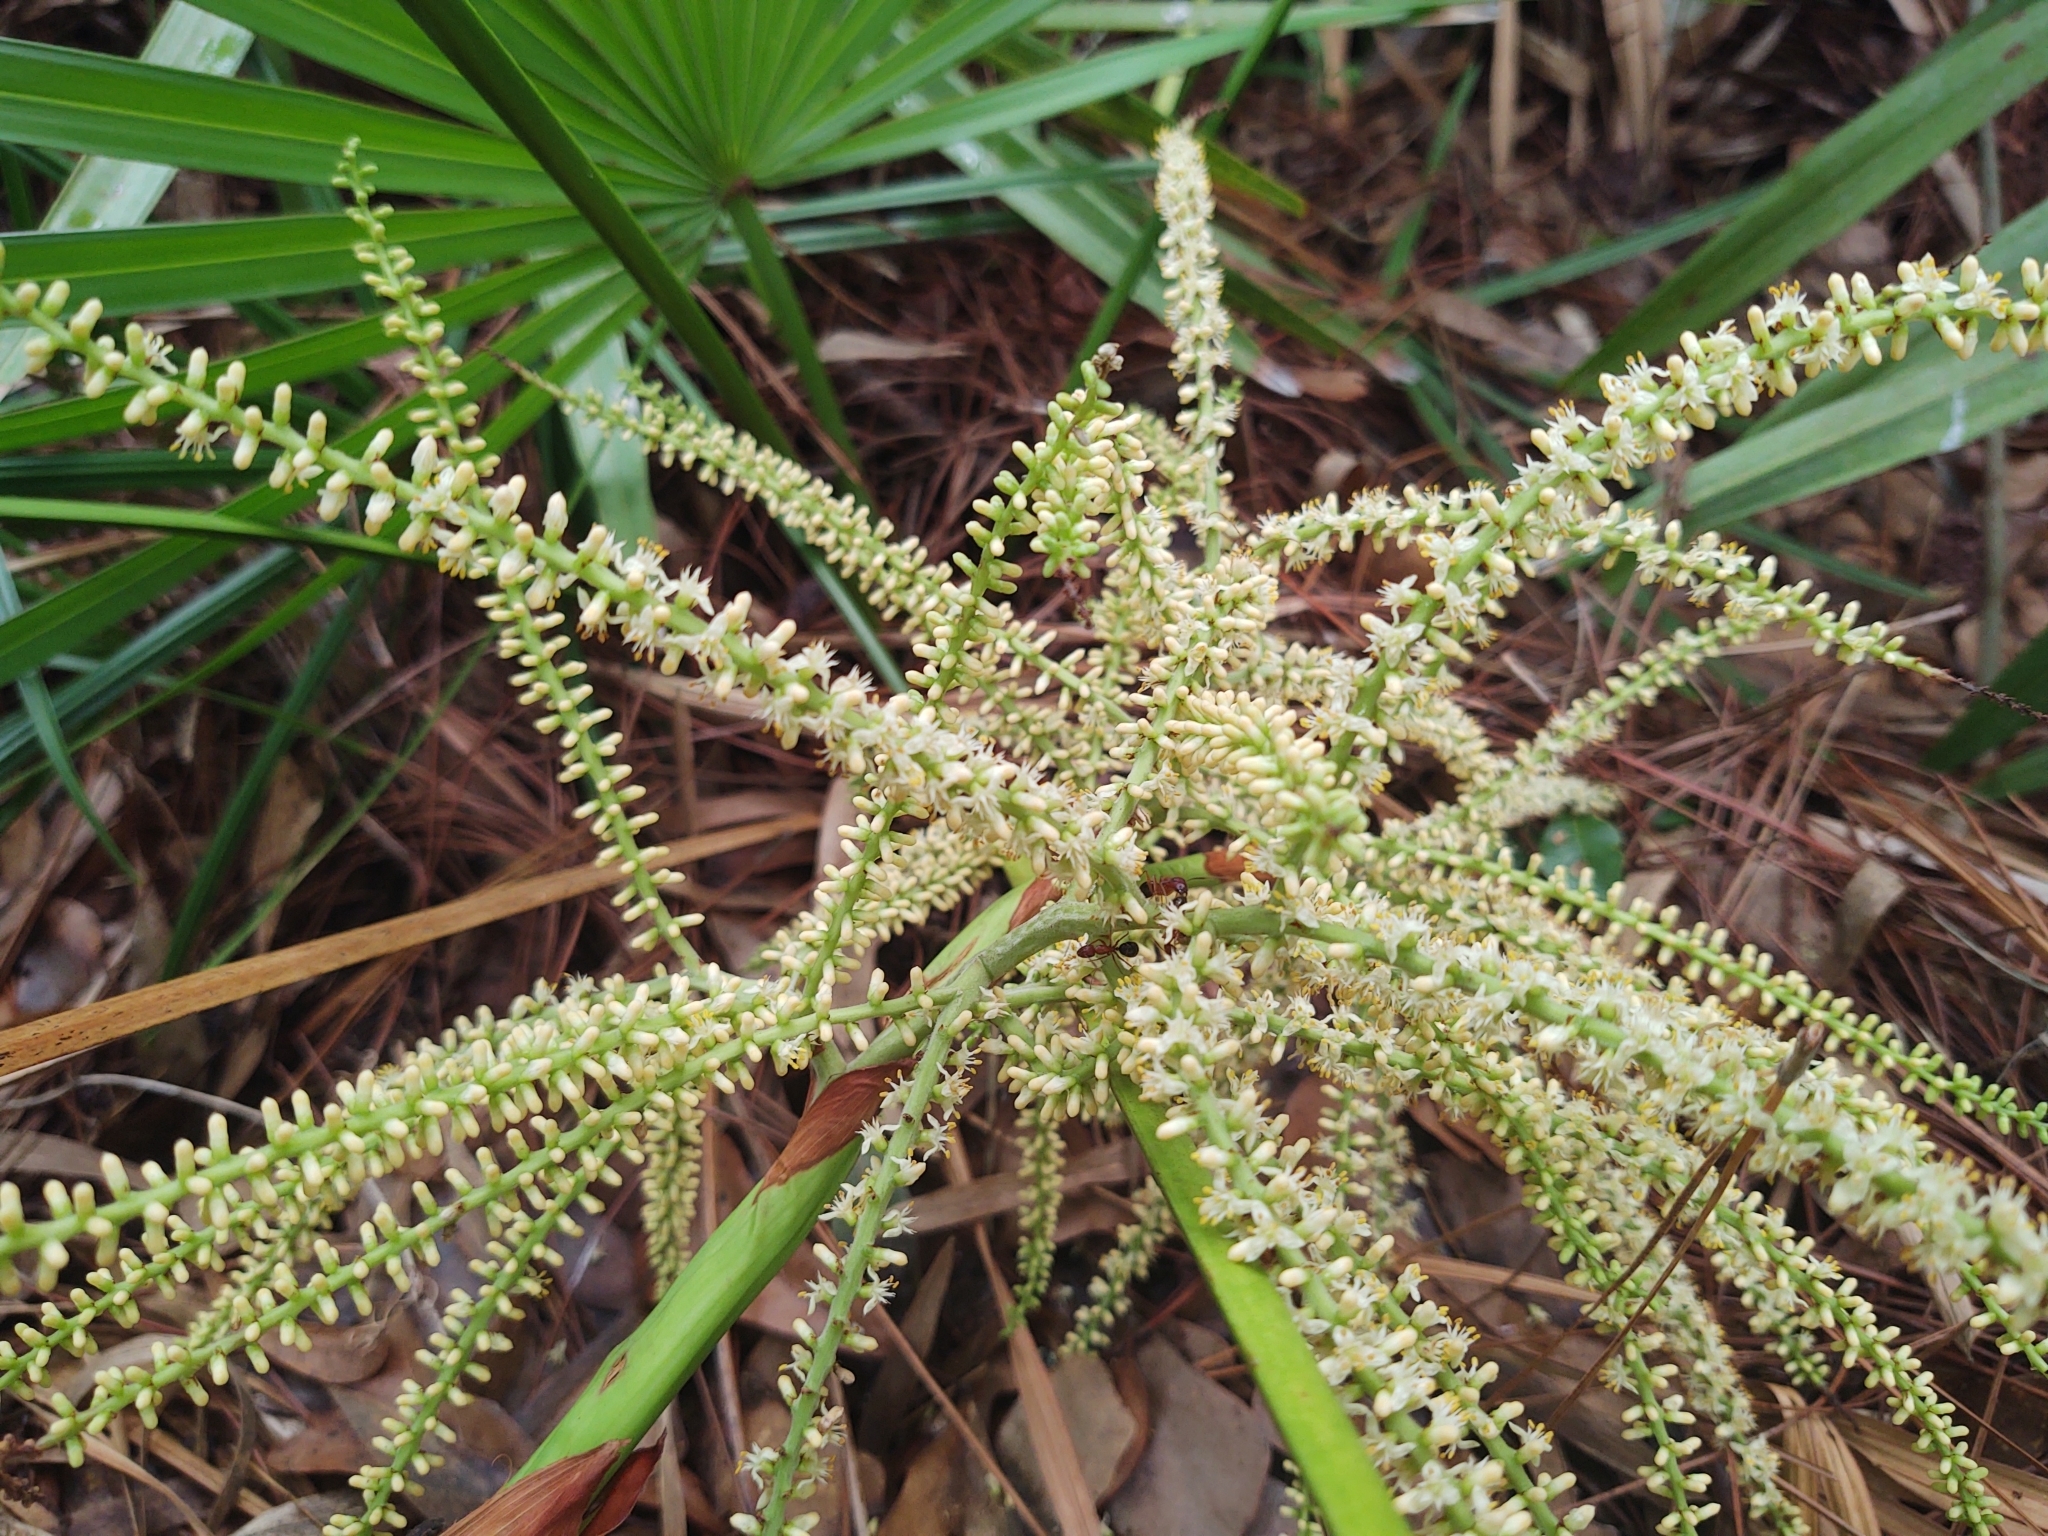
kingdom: Plantae
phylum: Tracheophyta
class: Liliopsida
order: Arecales
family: Arecaceae
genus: Serenoa
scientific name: Serenoa repens
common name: Saw-palmetto
